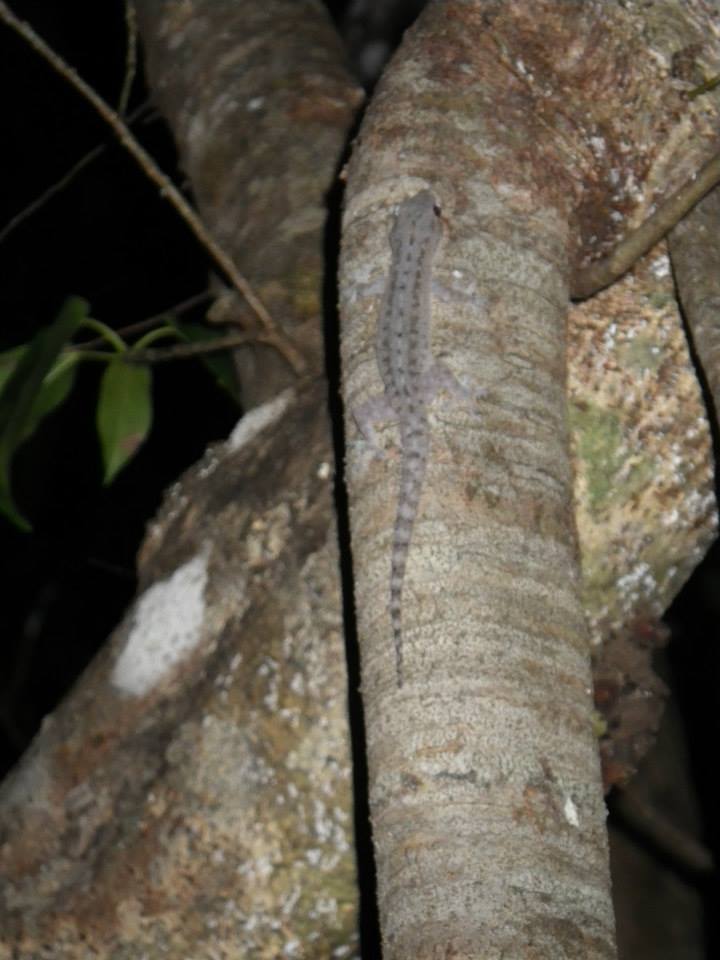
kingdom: Animalia
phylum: Chordata
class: Squamata
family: Gekkonidae
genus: Hemidactylus
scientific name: Hemidactylus frenatus
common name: Common house gecko
